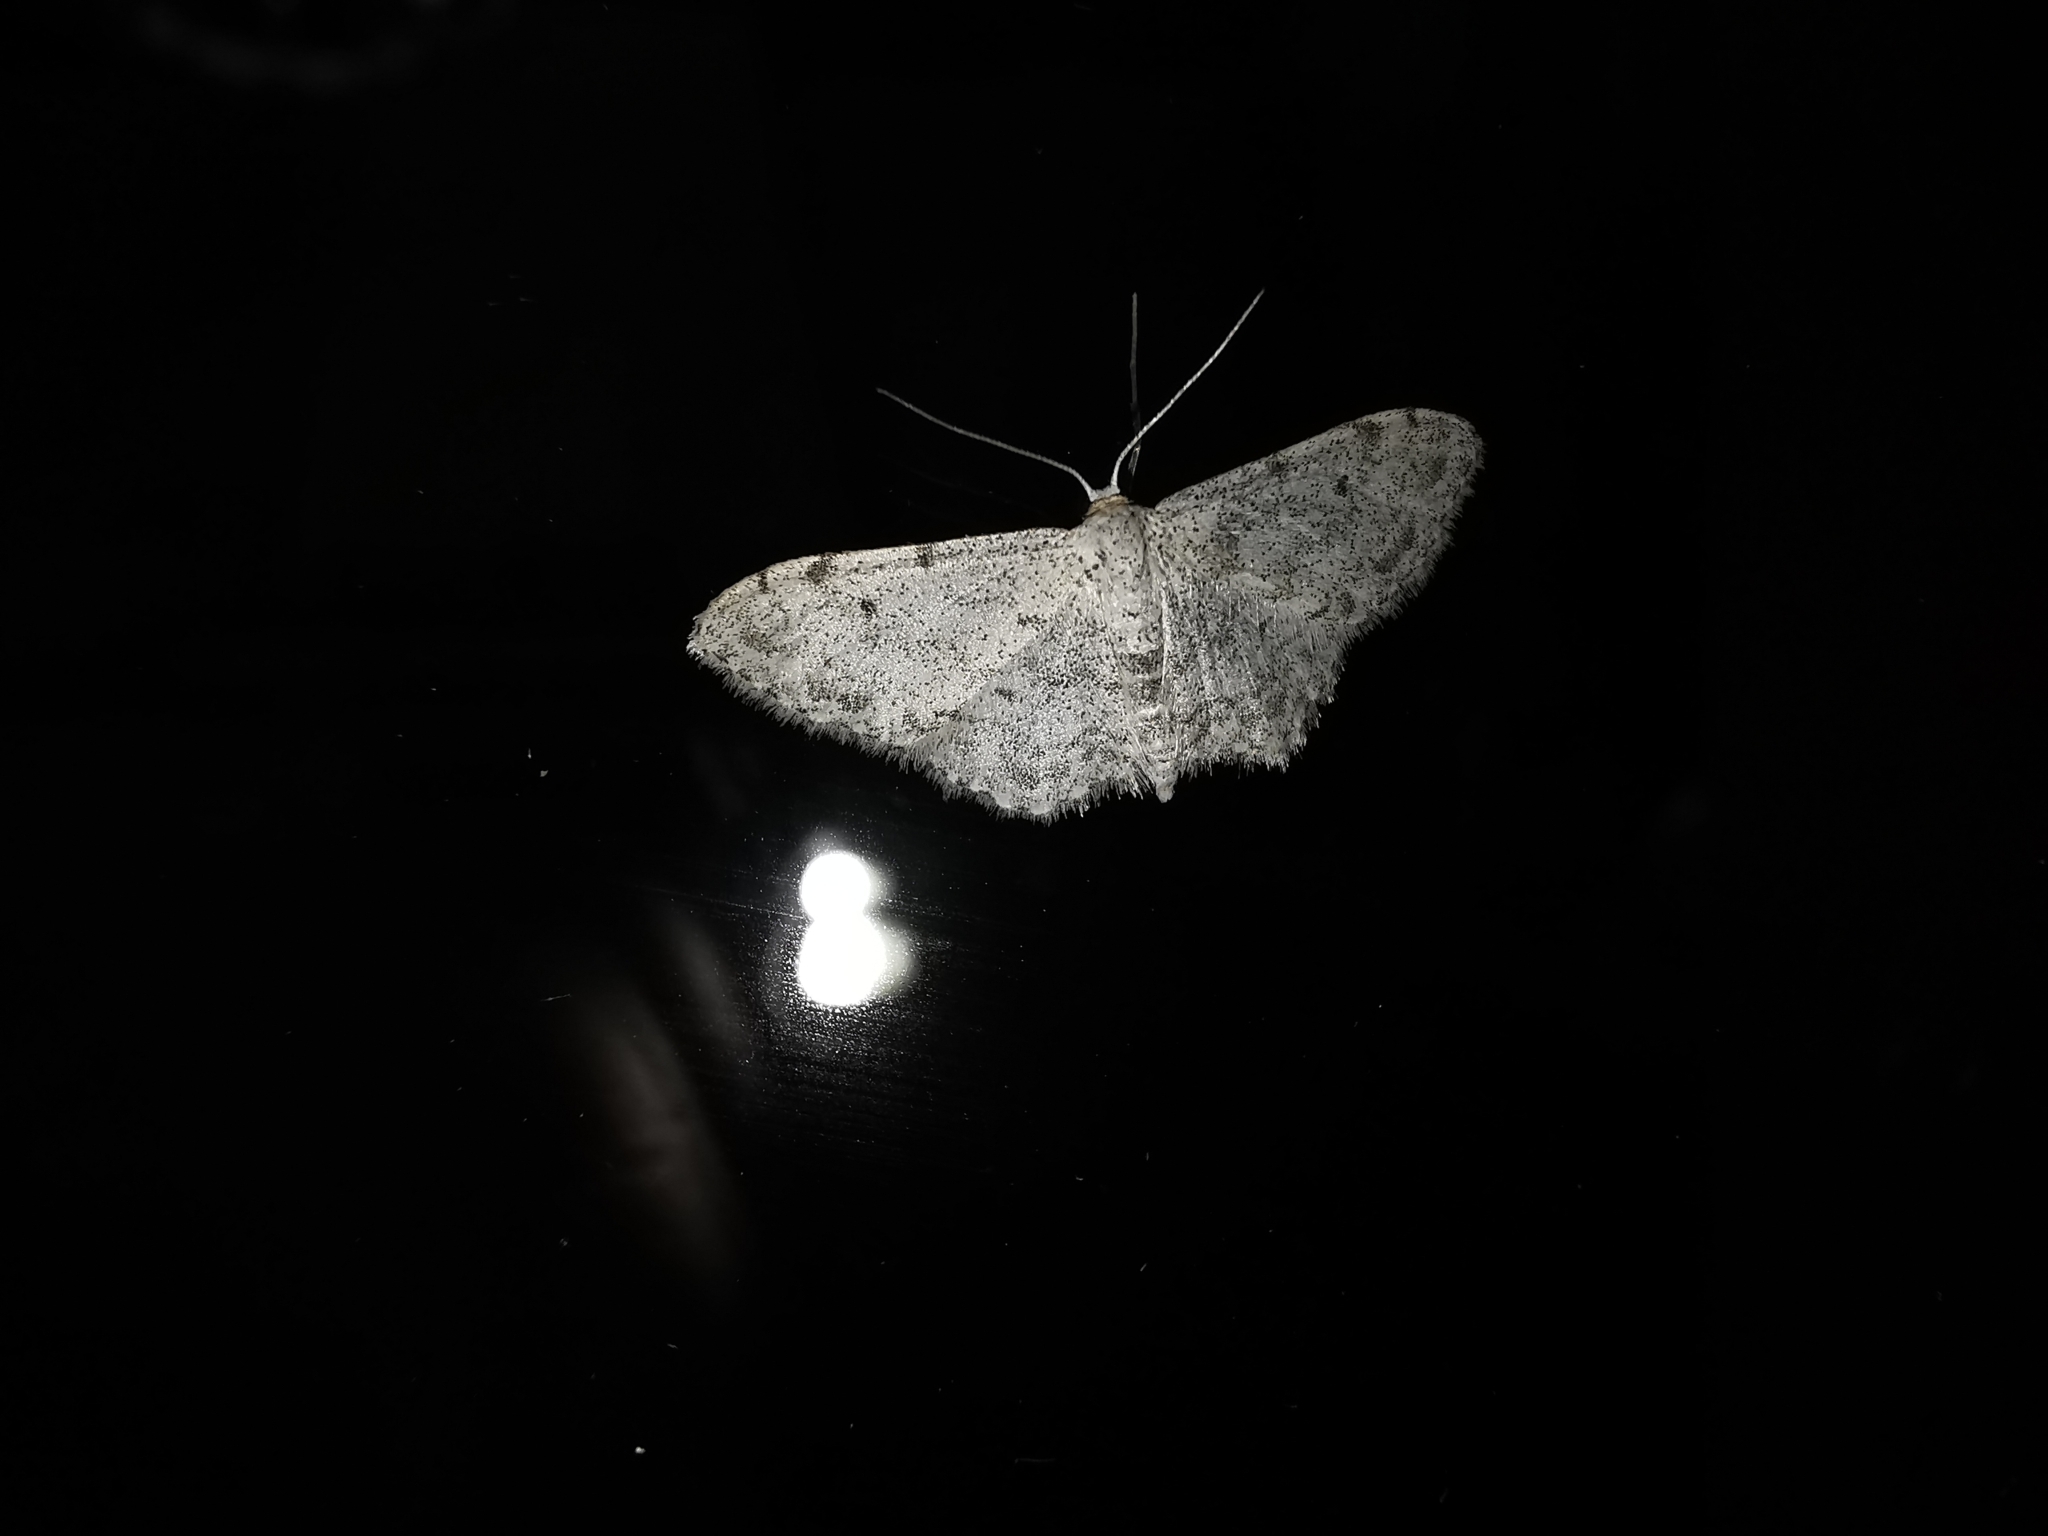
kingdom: Animalia
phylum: Arthropoda
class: Insecta
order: Lepidoptera
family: Geometridae
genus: Idaea
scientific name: Idaea camparia
